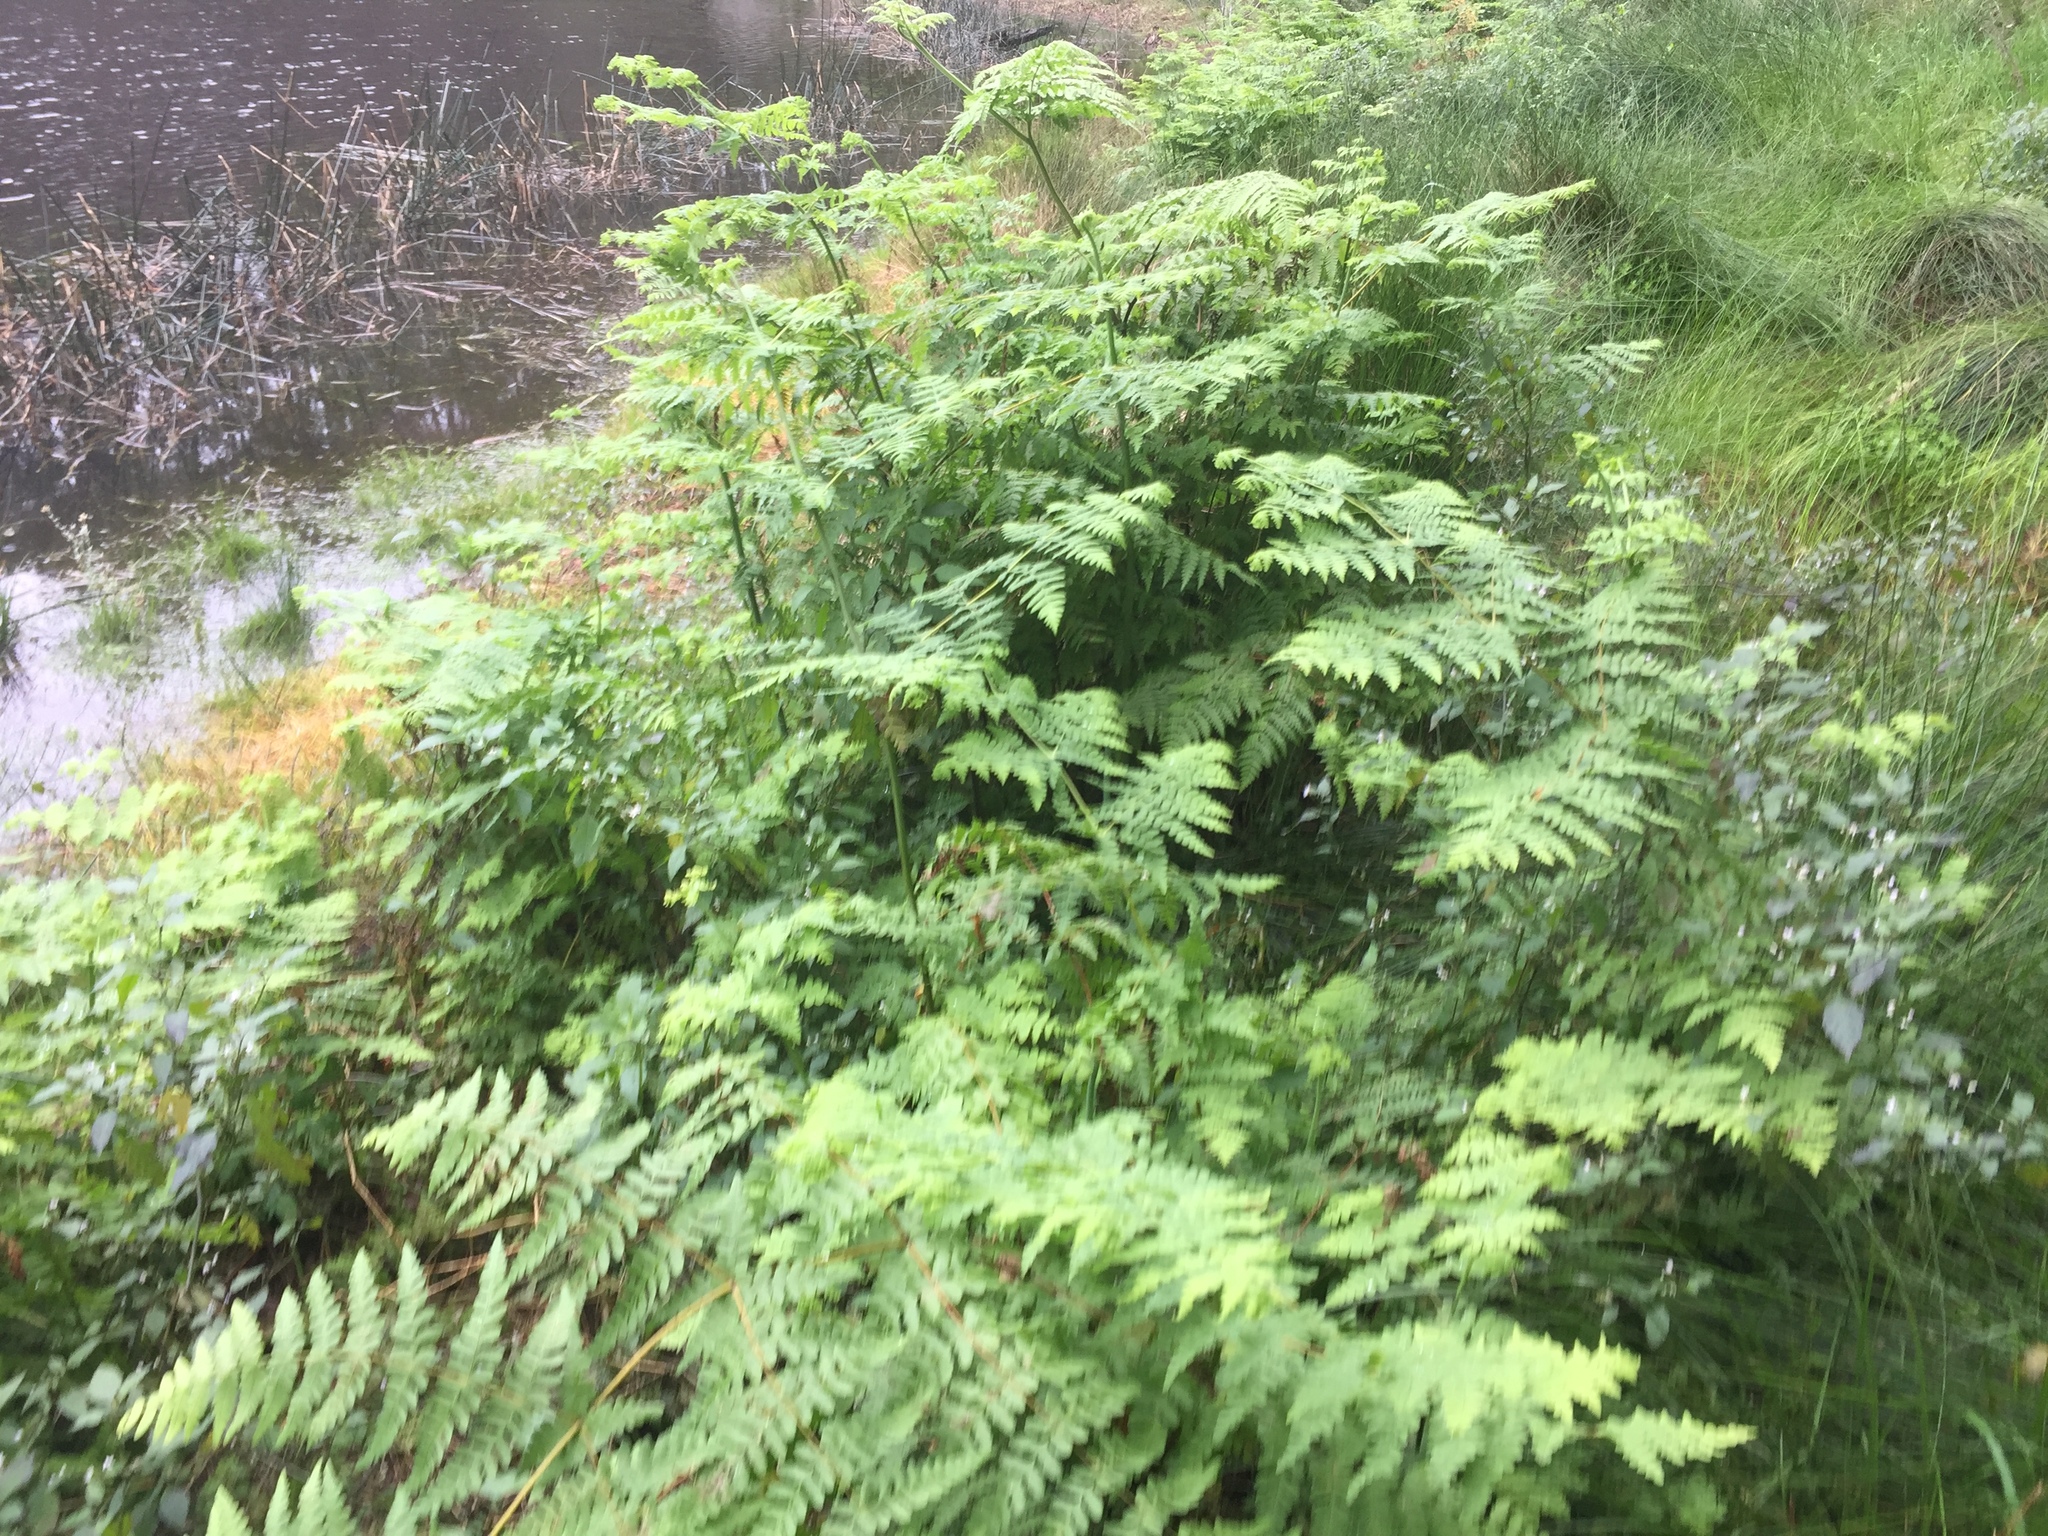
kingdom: Plantae
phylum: Tracheophyta
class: Polypodiopsida
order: Polypodiales
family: Dennstaedtiaceae
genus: Histiopteris
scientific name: Histiopteris incisa
